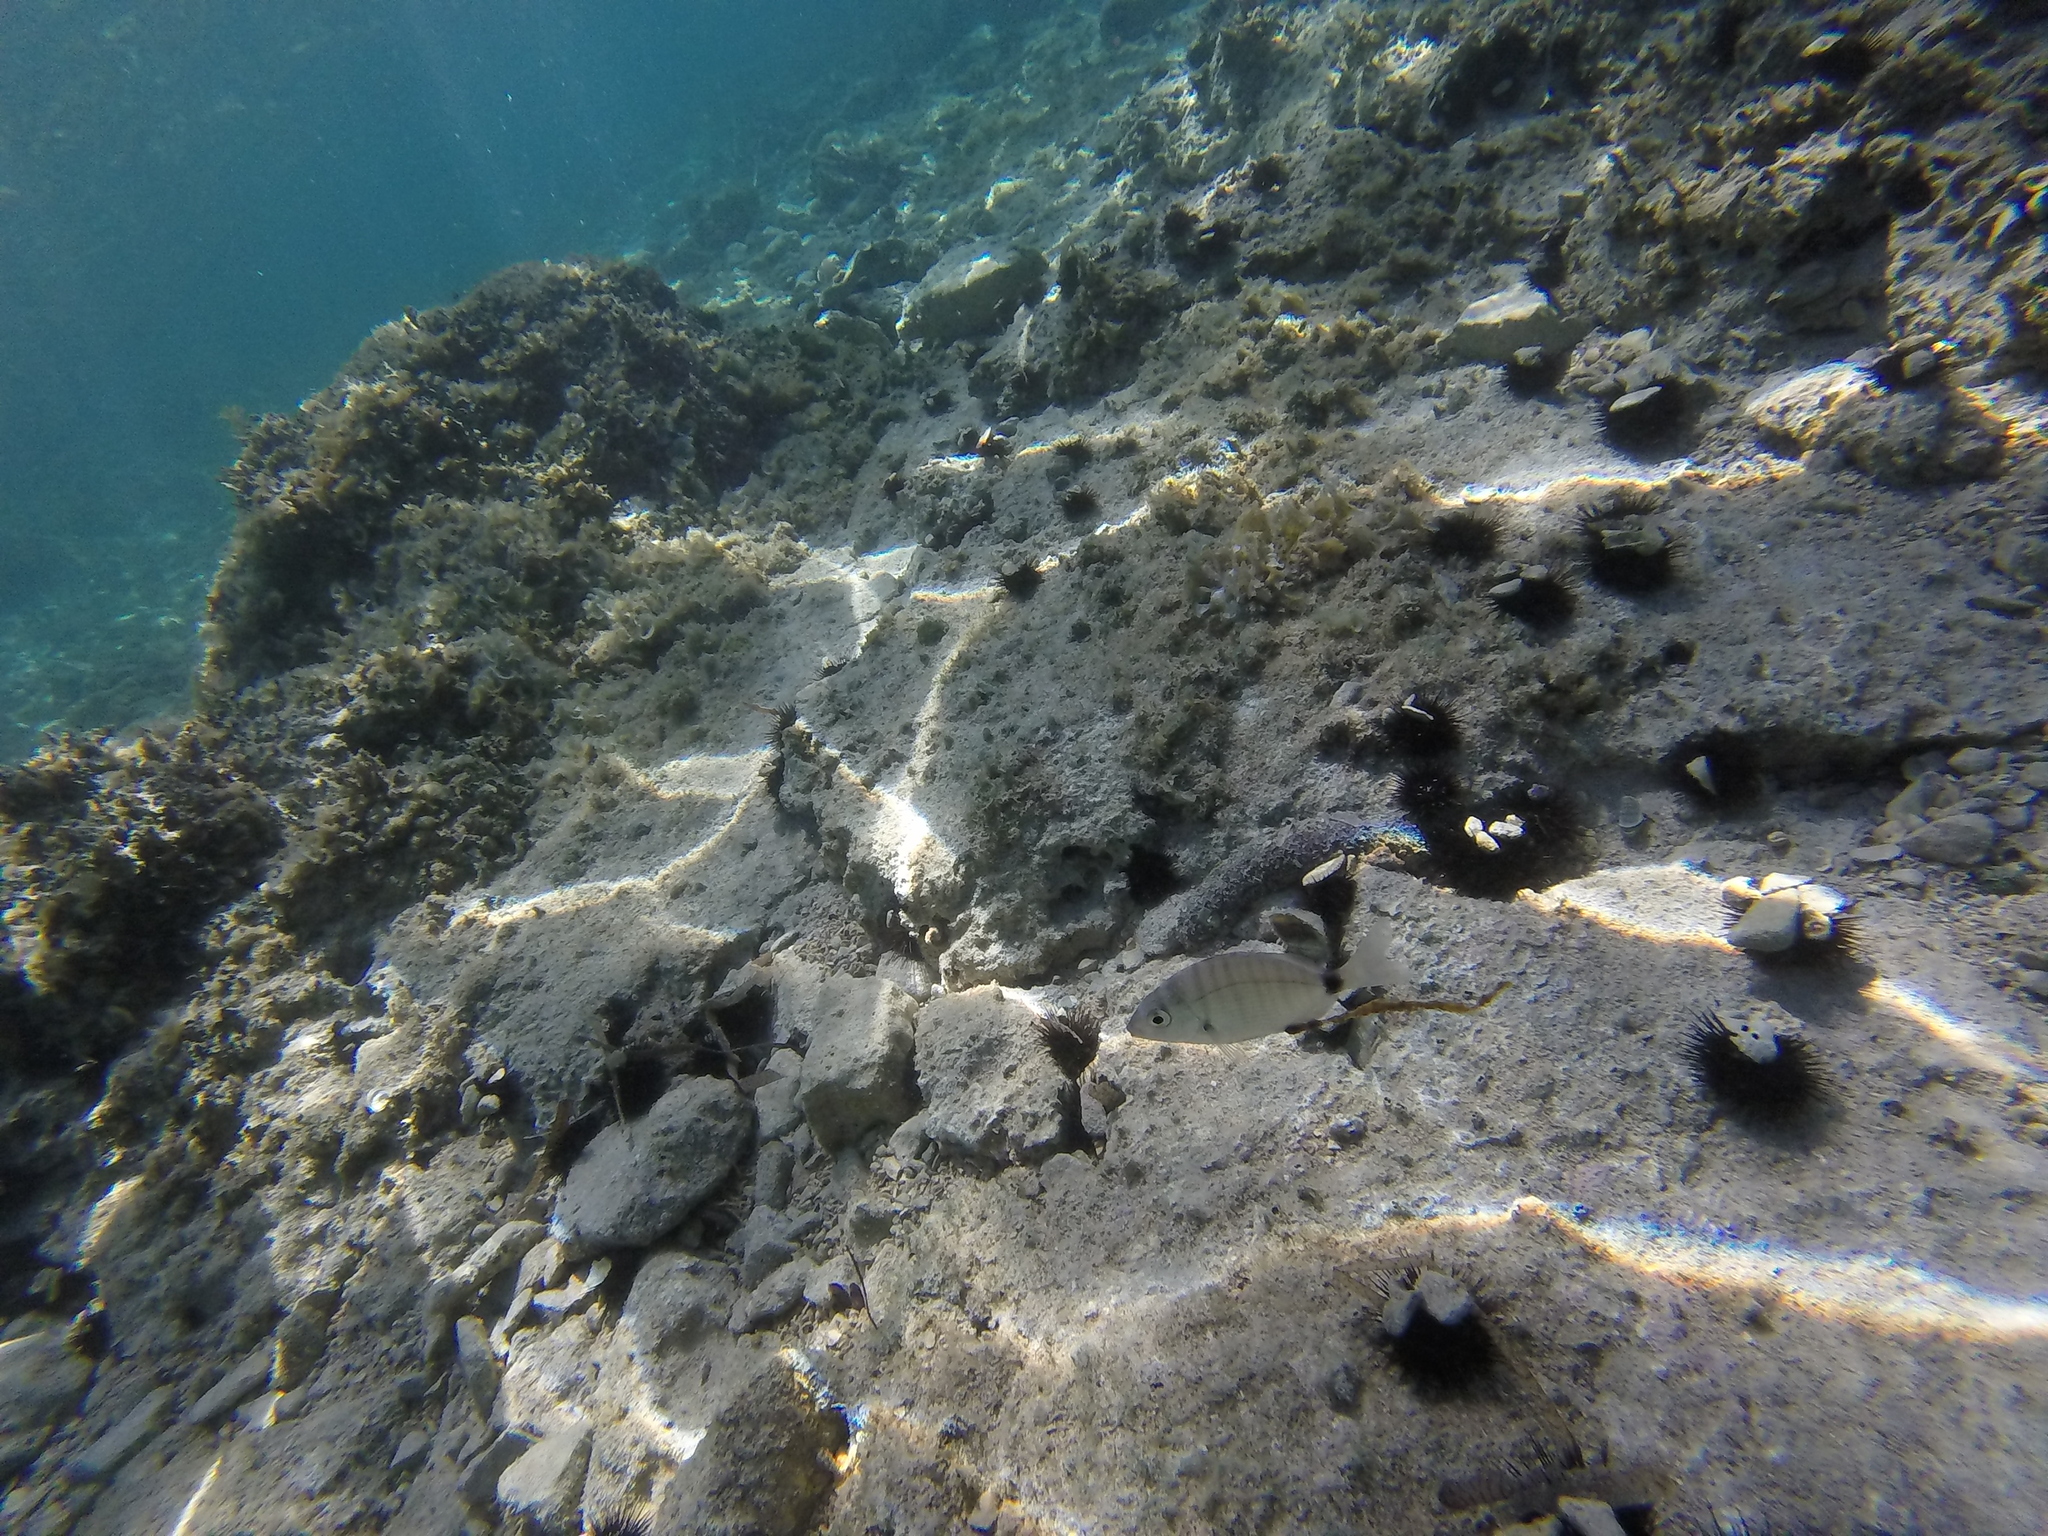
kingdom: Animalia
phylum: Chordata
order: Perciformes
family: Sparidae
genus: Diplodus
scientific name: Diplodus puntazzo
